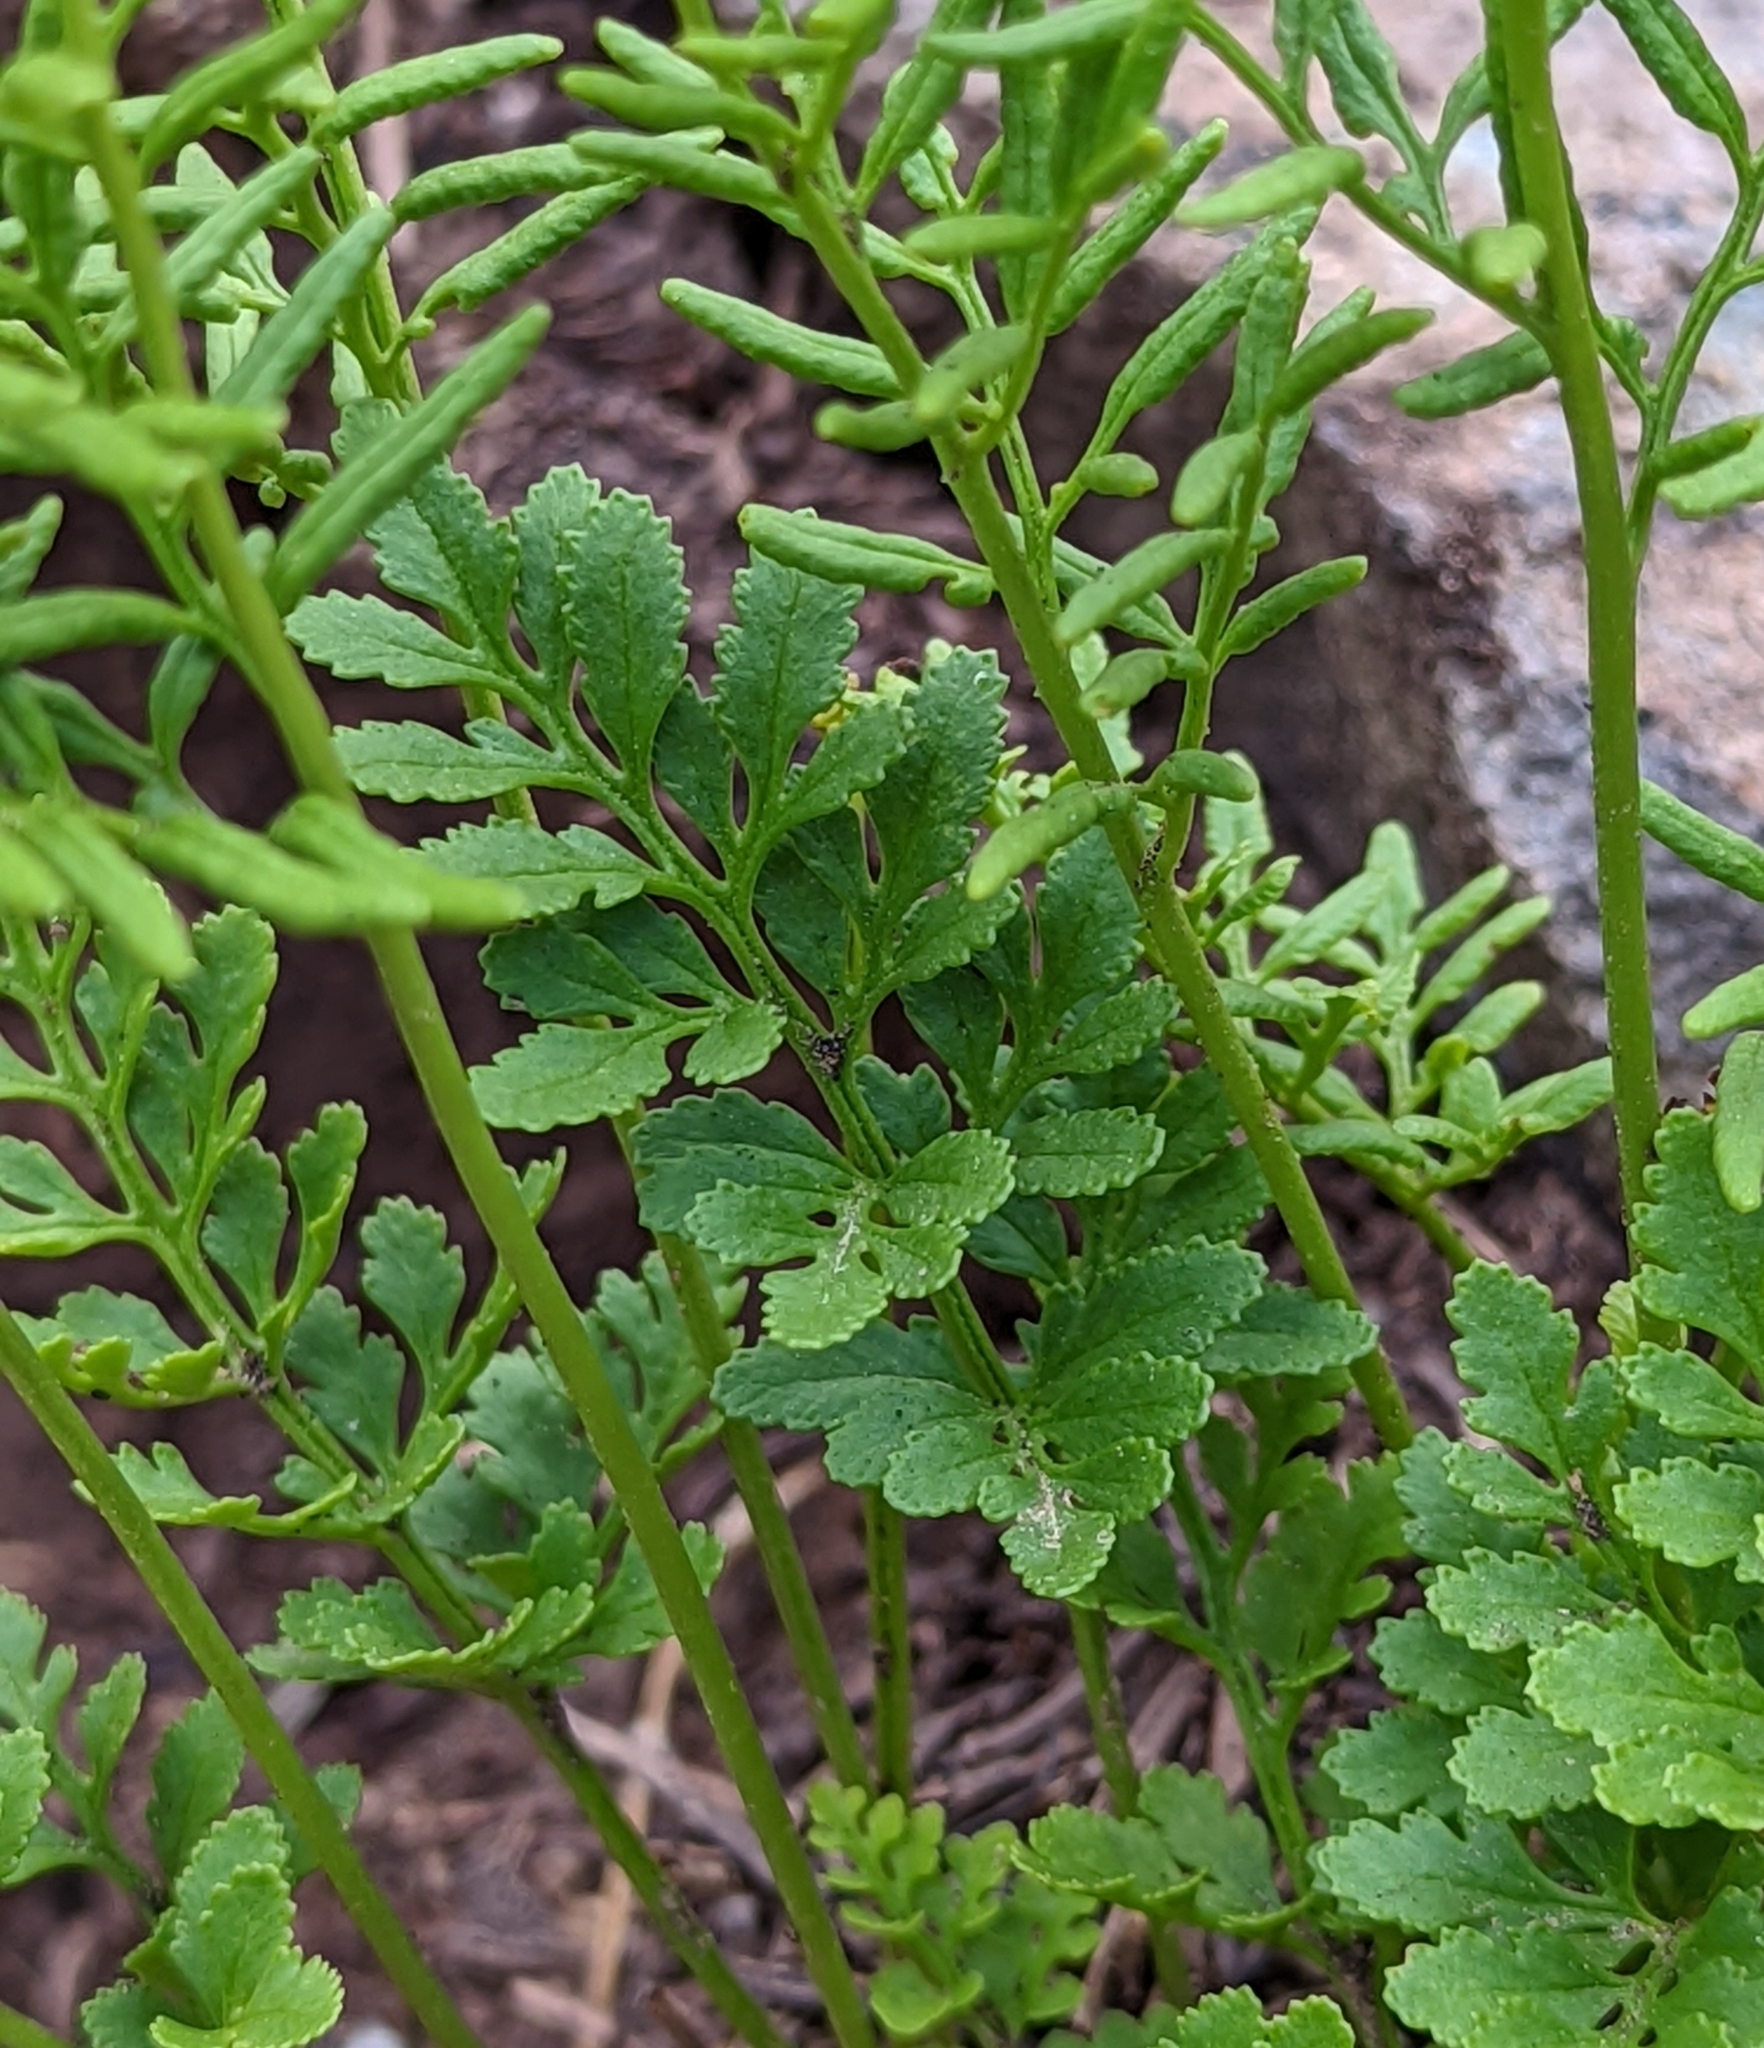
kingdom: Plantae
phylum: Tracheophyta
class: Polypodiopsida
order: Polypodiales
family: Pteridaceae
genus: Cryptogramma
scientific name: Cryptogramma acrostichoides
